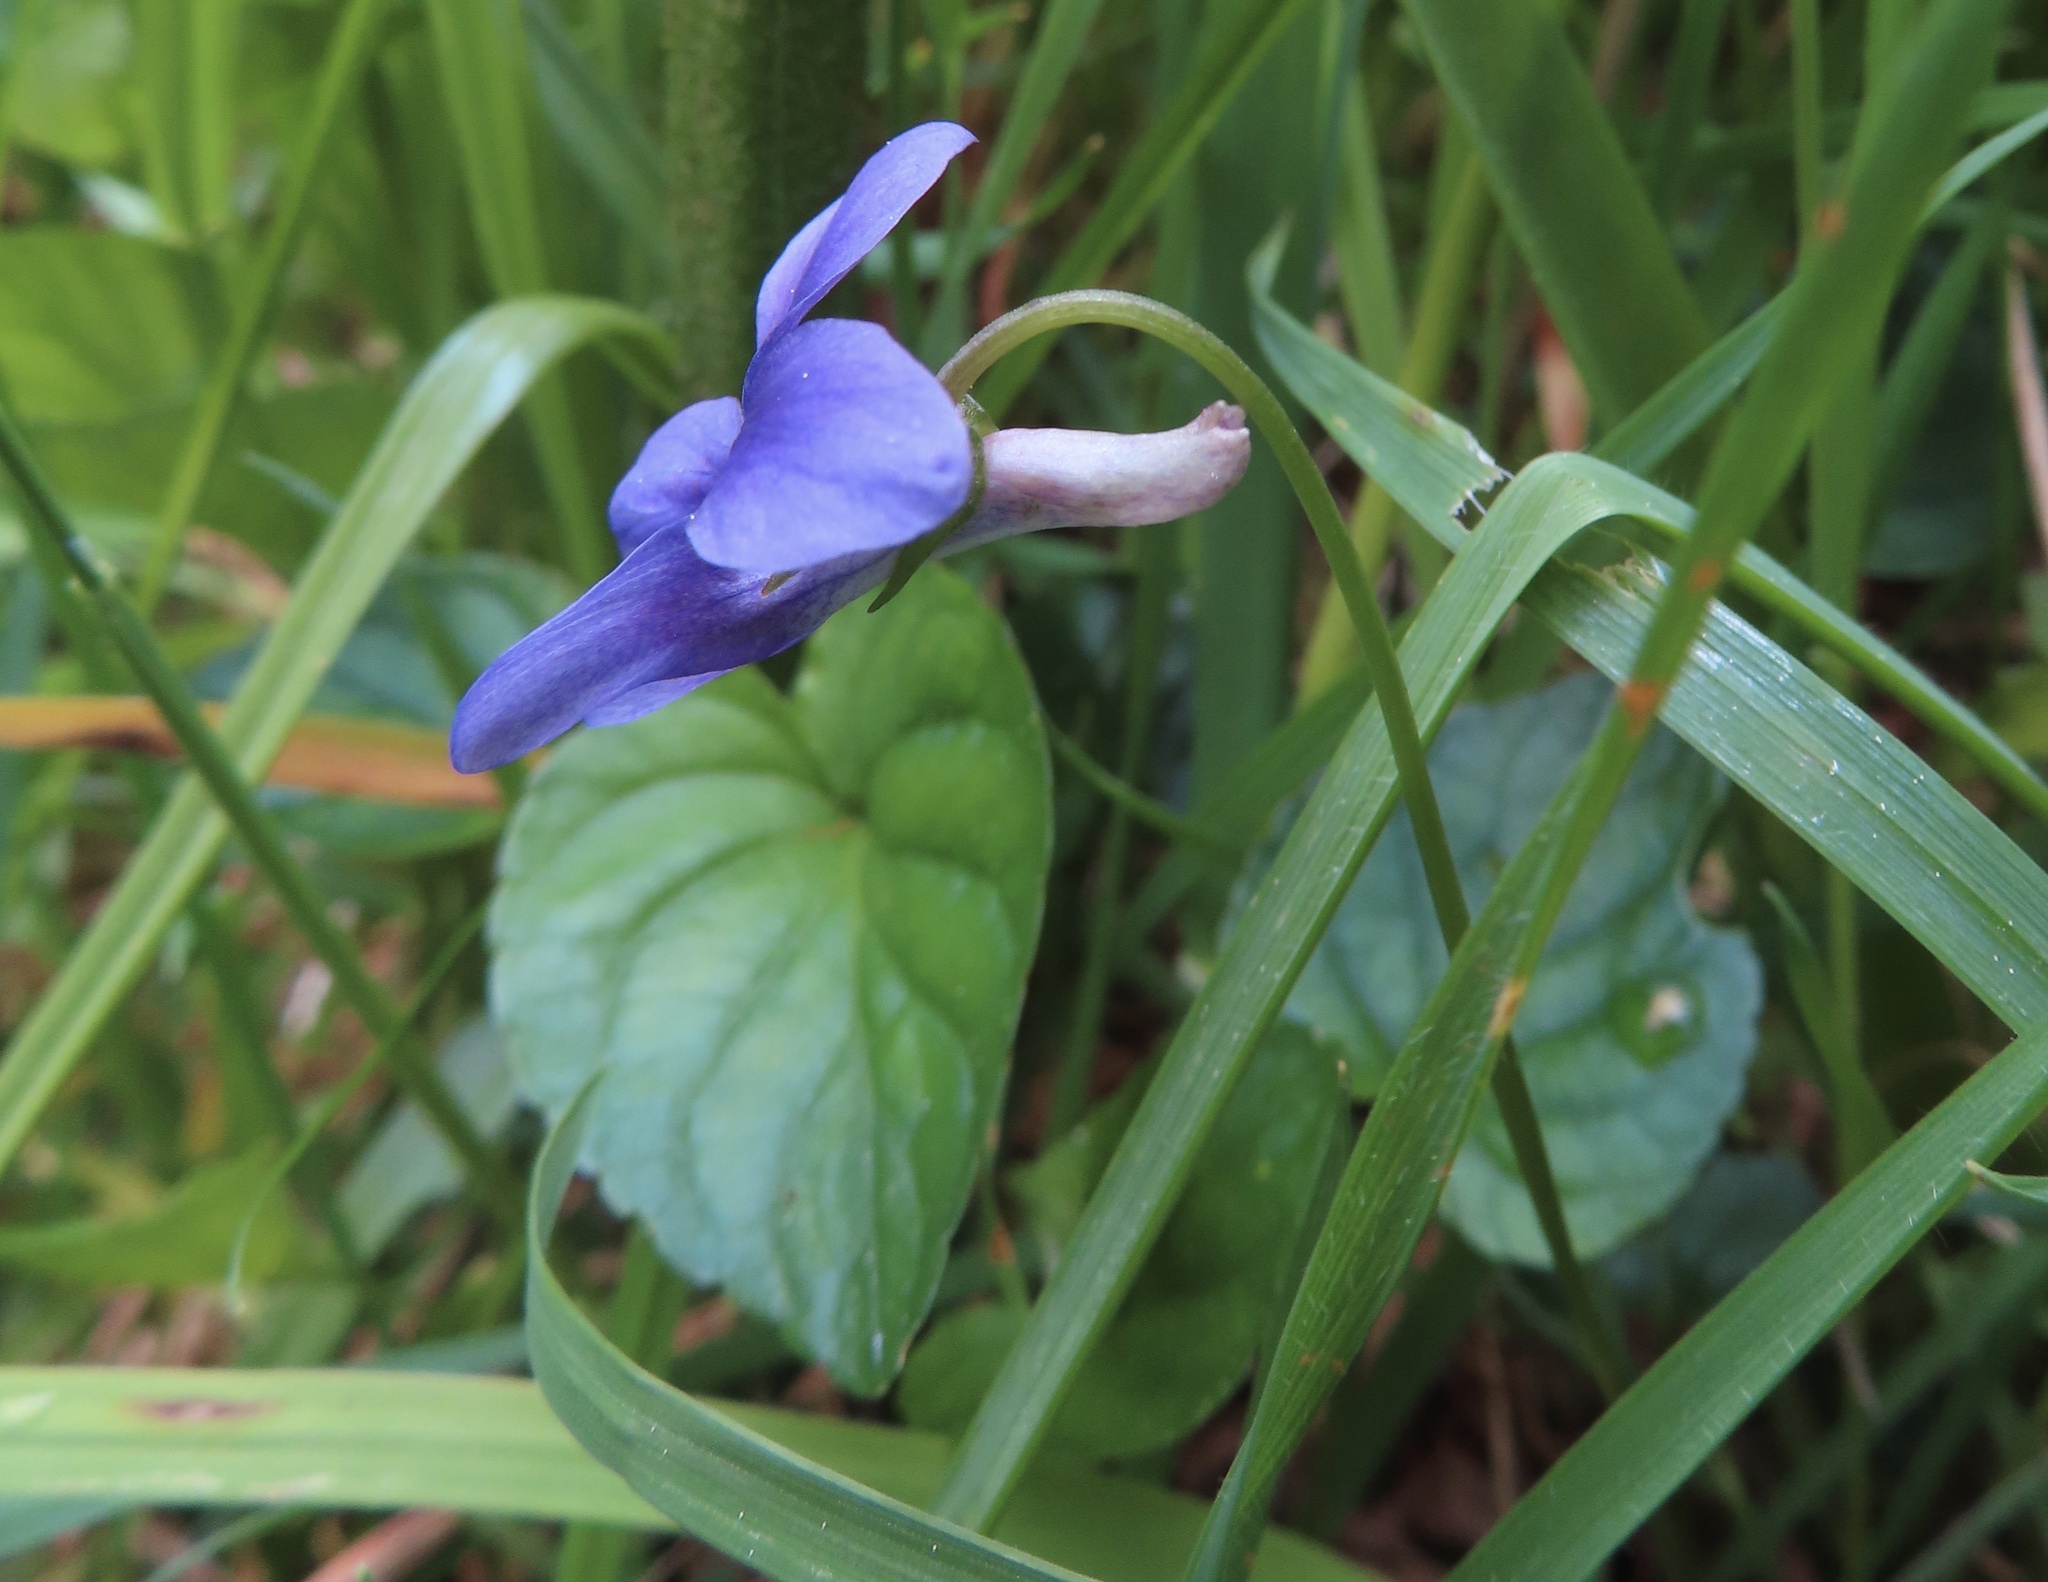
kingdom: Plantae
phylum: Tracheophyta
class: Magnoliopsida
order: Malpighiales
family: Violaceae
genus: Viola
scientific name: Viola riviniana
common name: Common dog-violet
